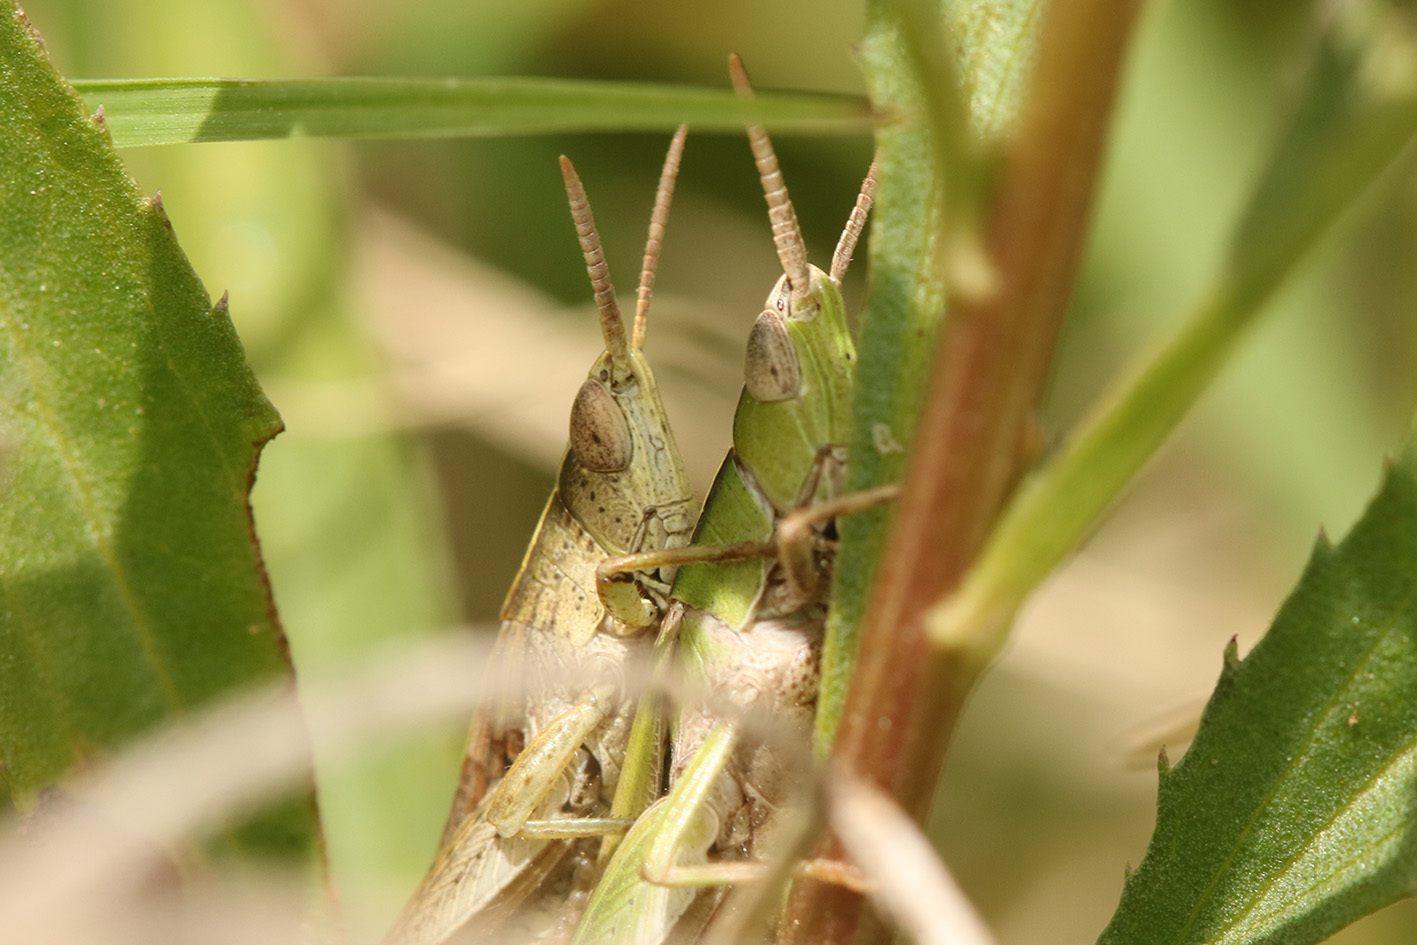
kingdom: Animalia
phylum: Arthropoda
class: Insecta
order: Orthoptera
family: Acrididae
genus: Laplatacris
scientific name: Laplatacris dispar
